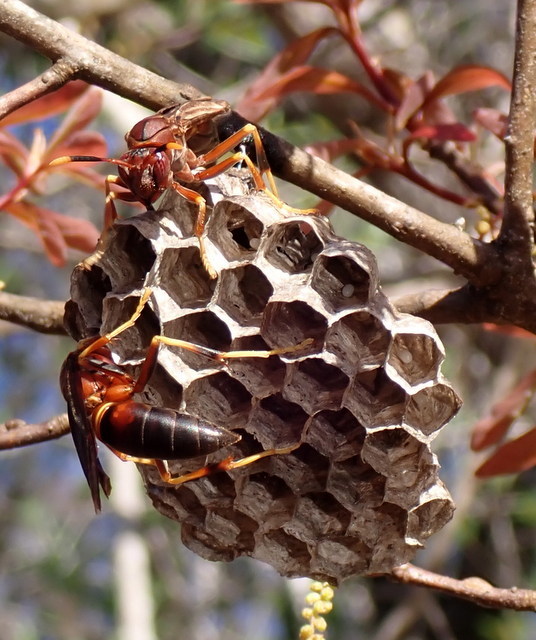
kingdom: Animalia
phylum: Arthropoda
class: Insecta
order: Hymenoptera
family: Eumenidae
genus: Polistes
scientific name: Polistes annularis
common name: Ringed paper wasp
